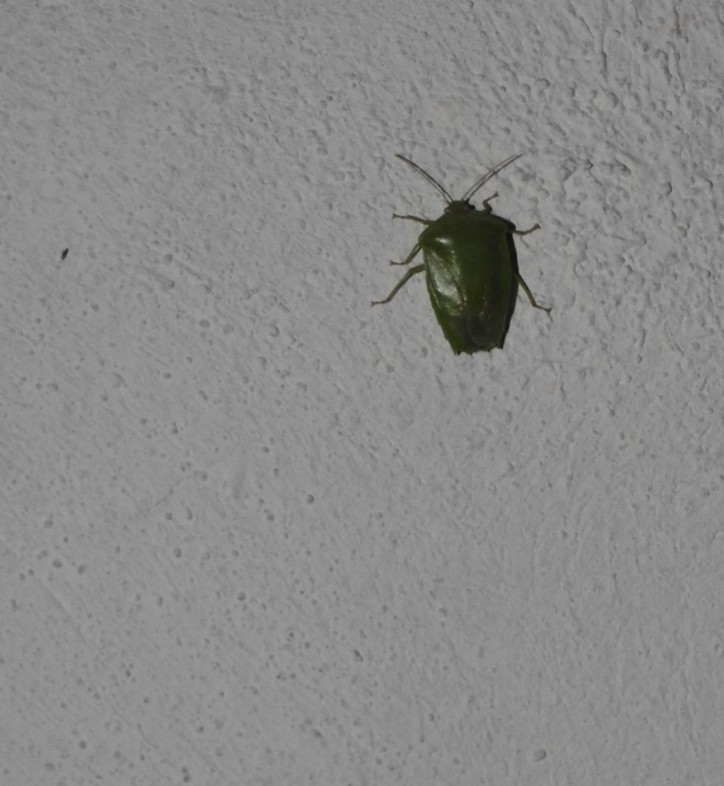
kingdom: Animalia
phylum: Arthropoda
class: Insecta
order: Hemiptera
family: Pentatomidae
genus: Acrosternum
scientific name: Acrosternum marginatum
